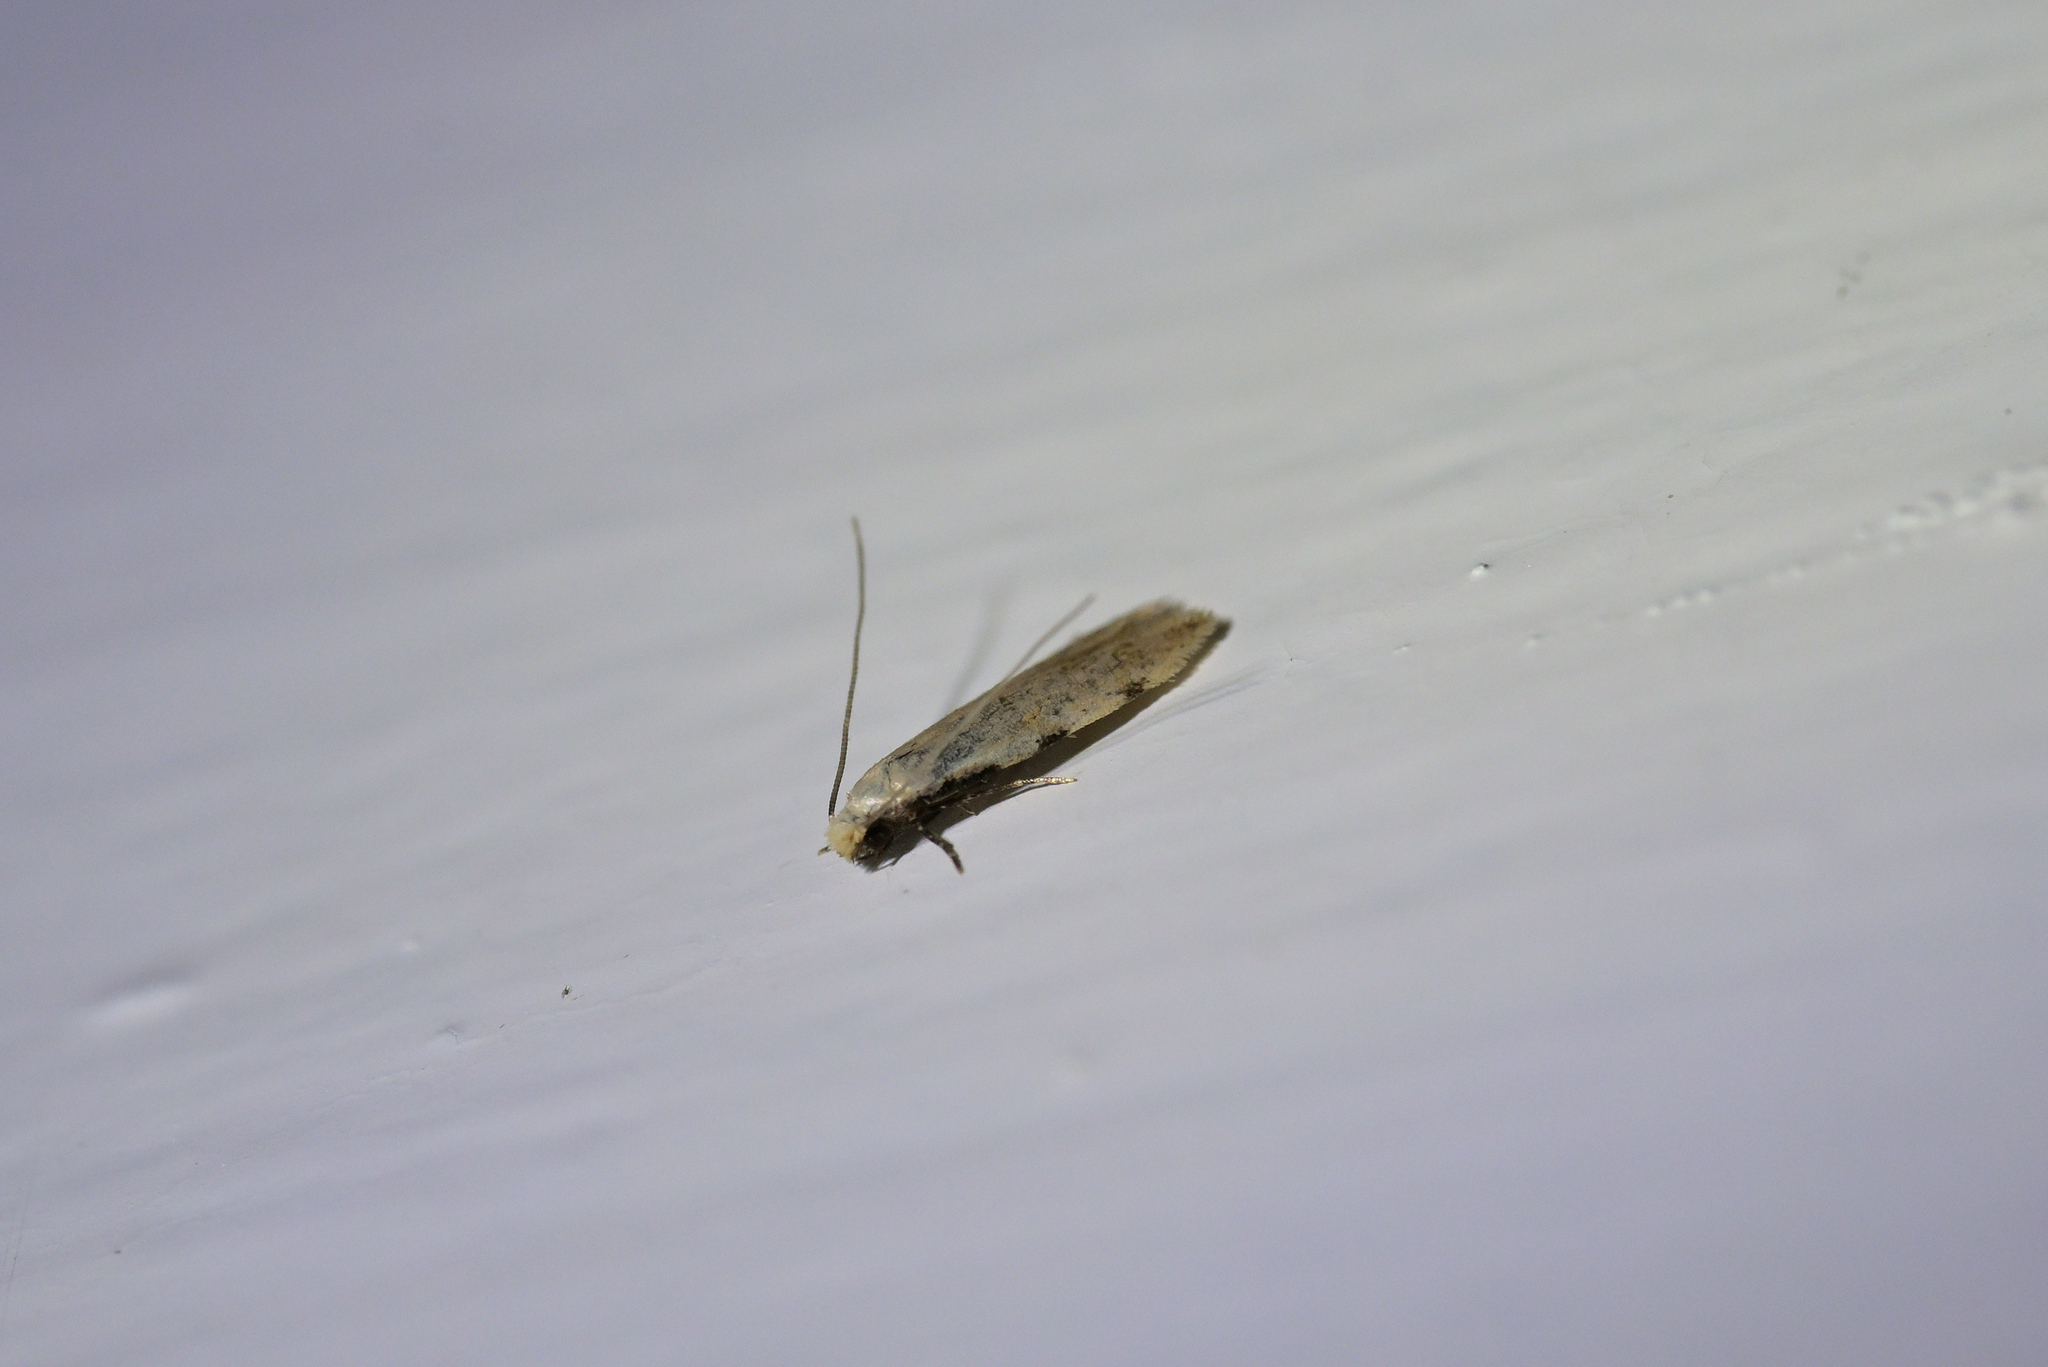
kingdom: Animalia
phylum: Arthropoda
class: Insecta
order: Lepidoptera
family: Tineidae
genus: Endophthora
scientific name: Endophthora omogramma
